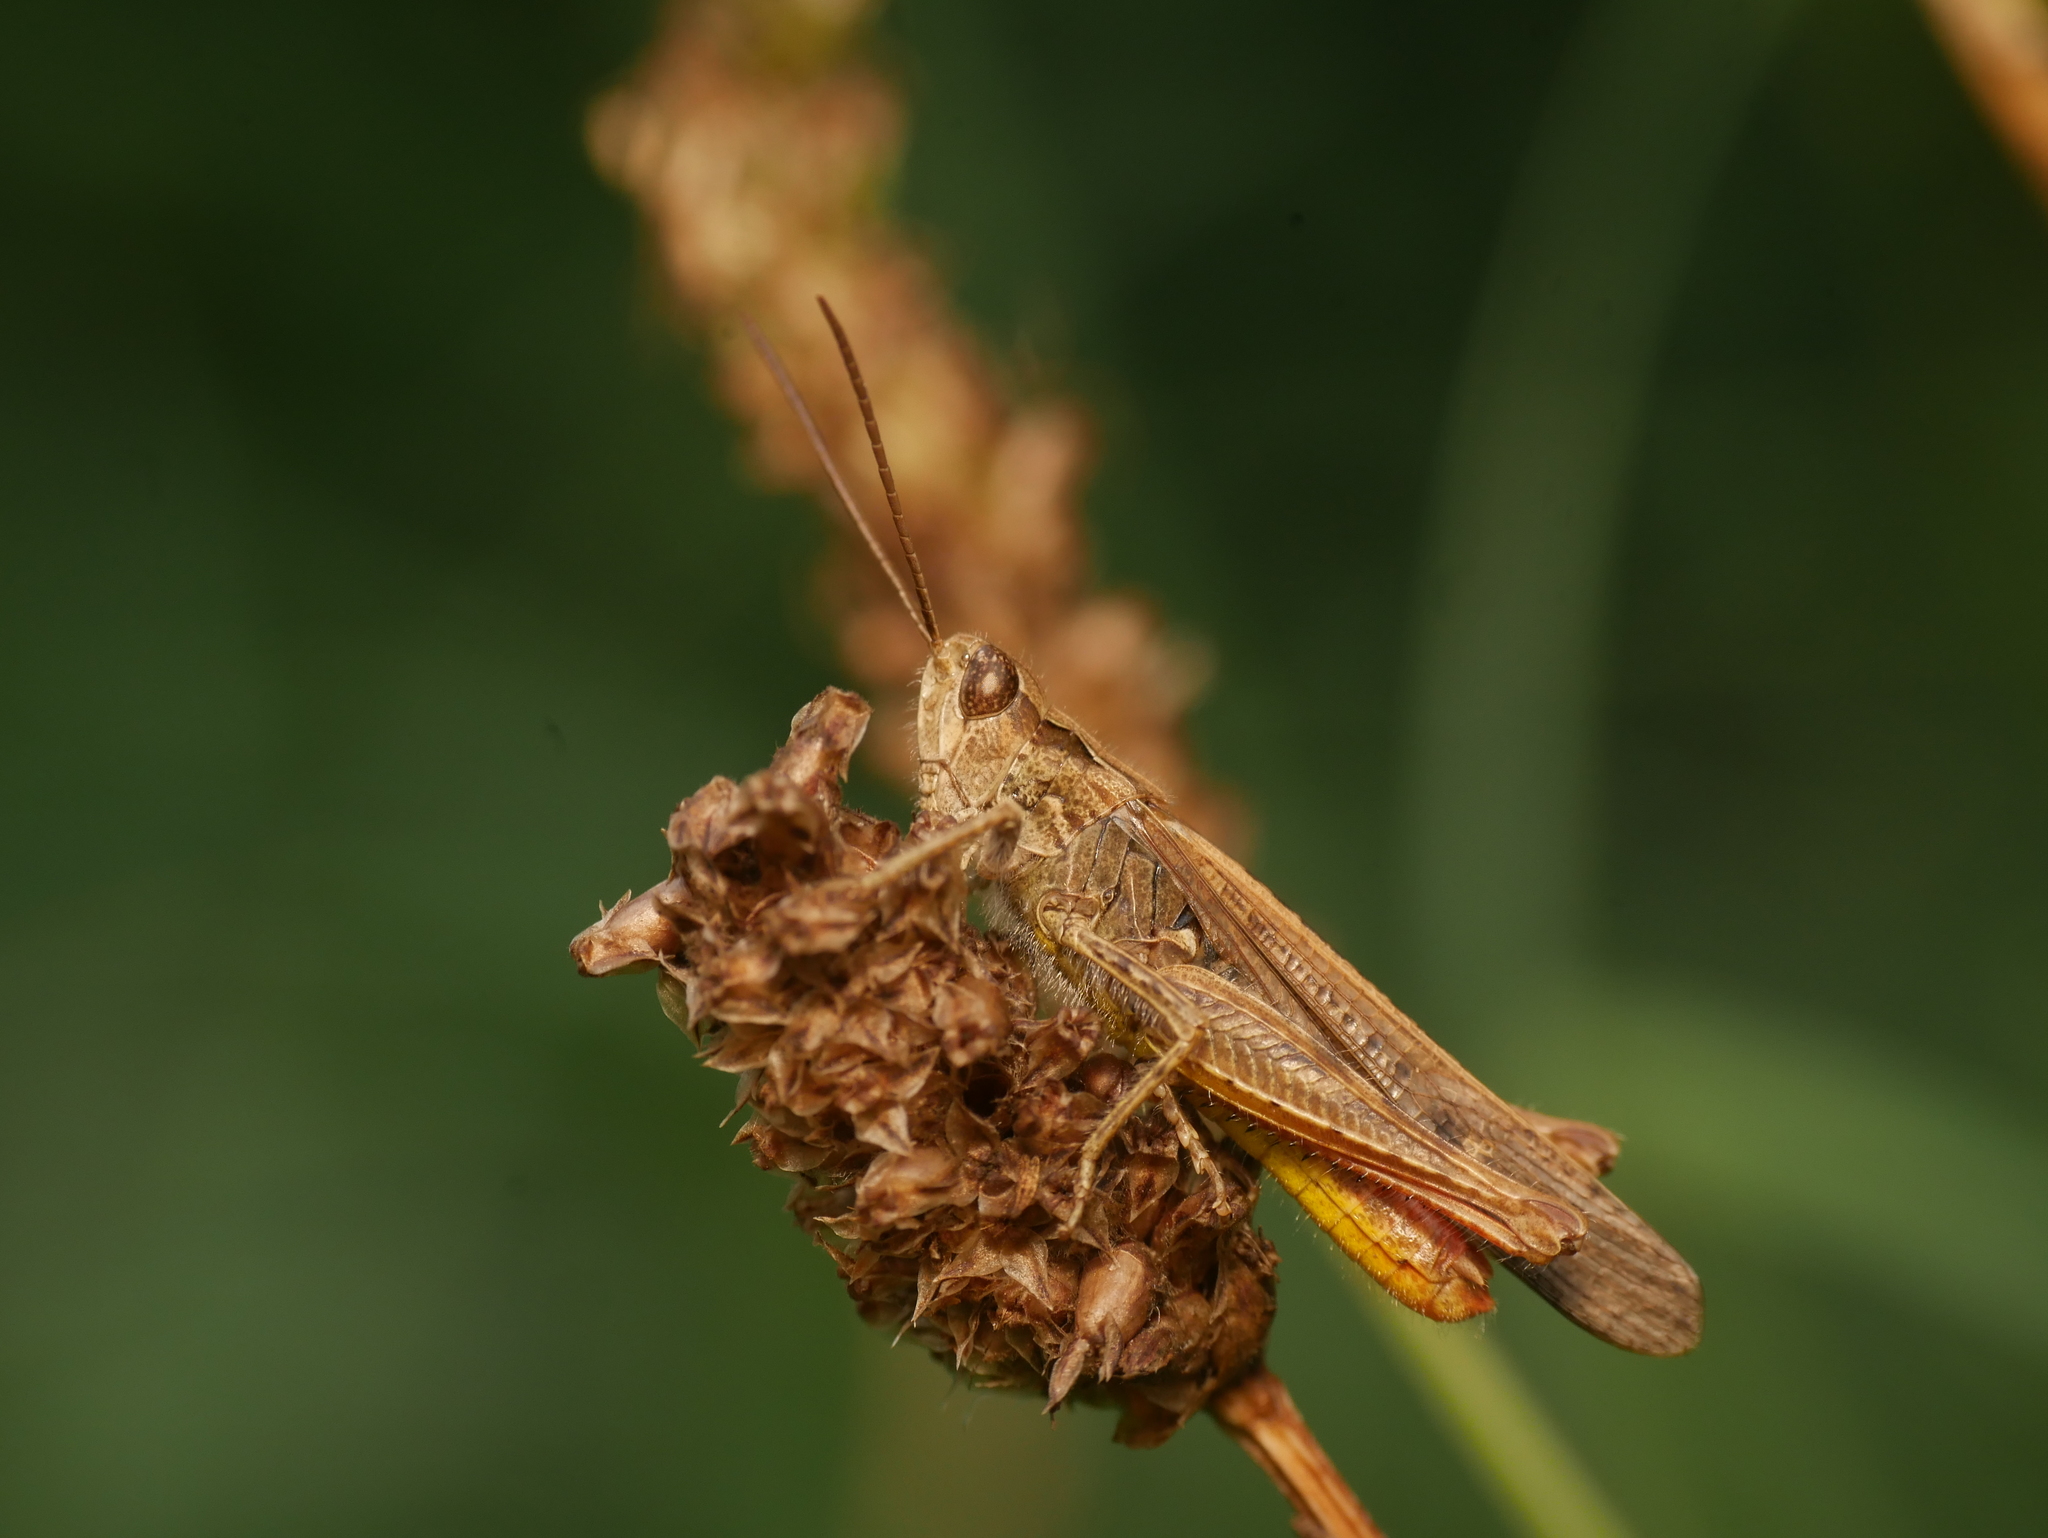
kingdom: Animalia
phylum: Arthropoda
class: Insecta
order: Orthoptera
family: Acrididae
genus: Chorthippus
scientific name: Chorthippus brunneus
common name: Field grasshopper
